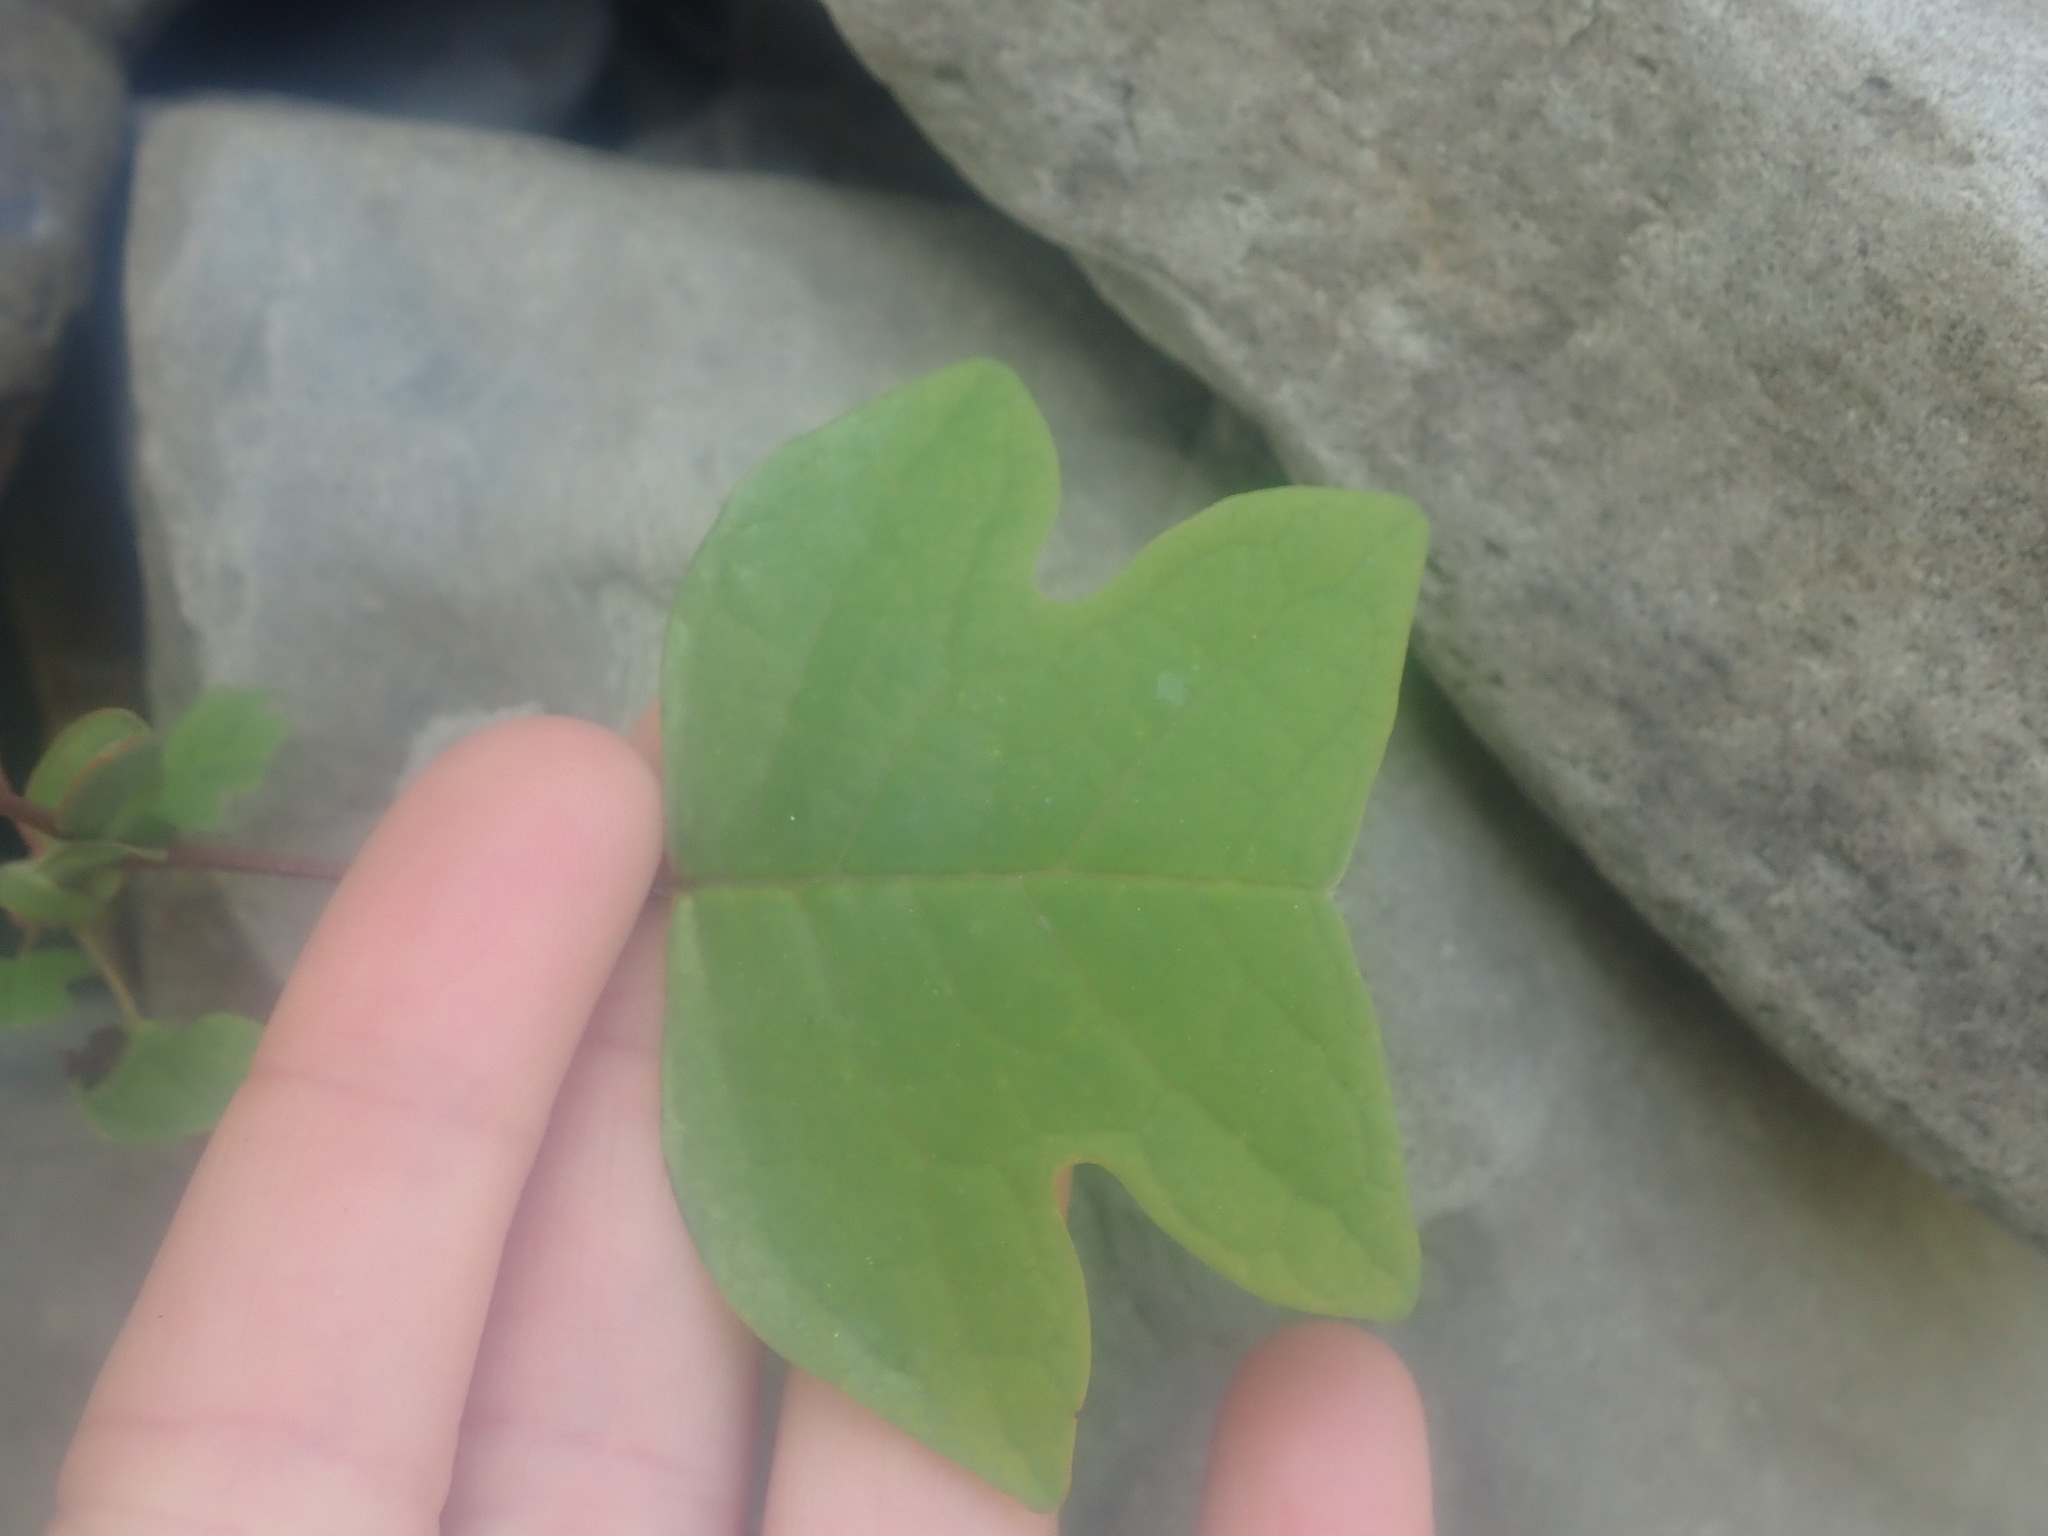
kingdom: Plantae
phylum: Tracheophyta
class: Magnoliopsida
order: Magnoliales
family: Magnoliaceae
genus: Liriodendron
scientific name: Liriodendron tulipifera
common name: Tulip tree
